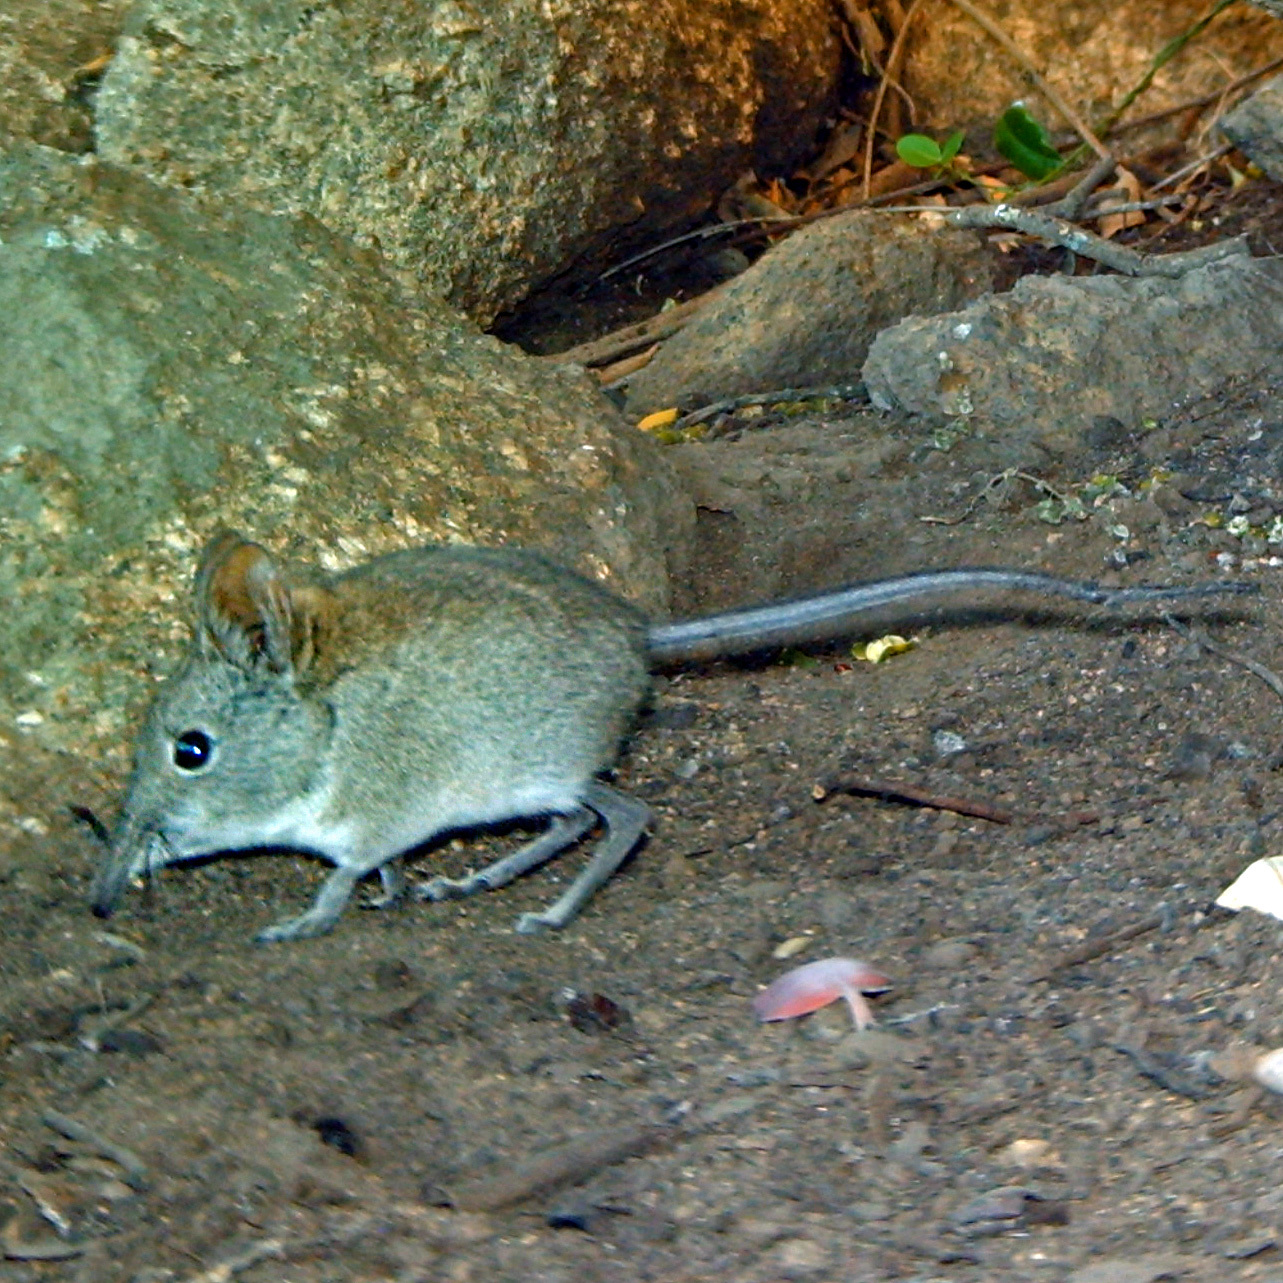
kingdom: Animalia
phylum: Chordata
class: Mammalia
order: Macroscelidea
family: Macroscelididae
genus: Elephantulus
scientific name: Elephantulus edwardii
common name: Cape elephant shrew
